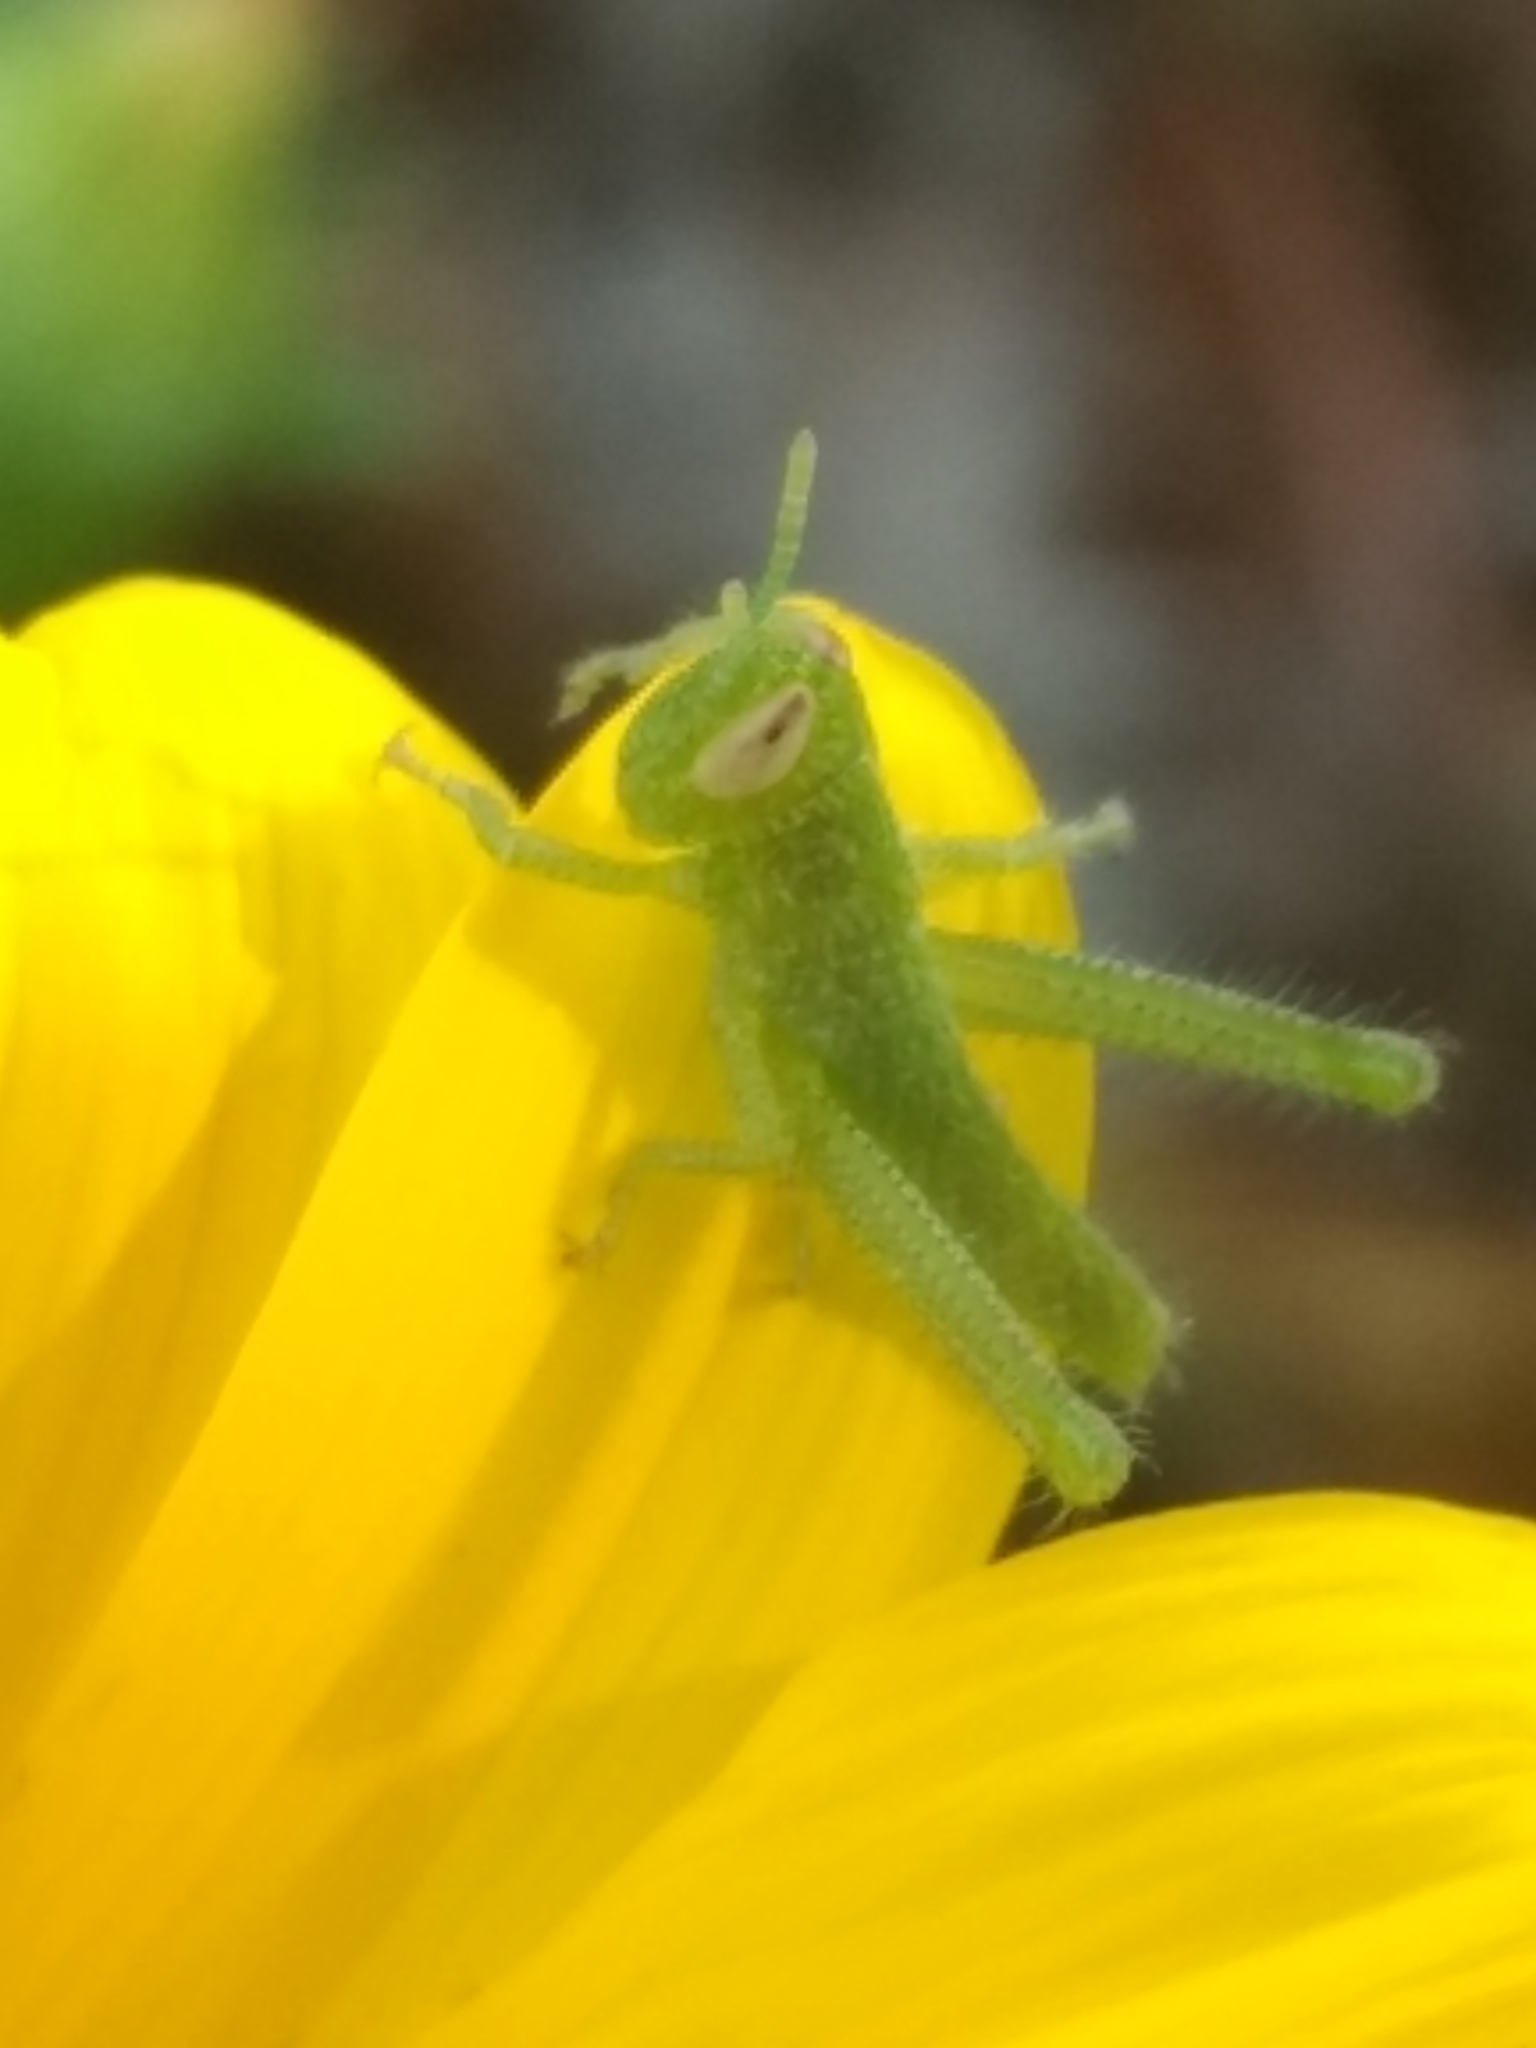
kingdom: Animalia
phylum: Arthropoda
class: Insecta
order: Orthoptera
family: Acrididae
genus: Schistocerca
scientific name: Schistocerca nitens
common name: Vagrant grasshopper
